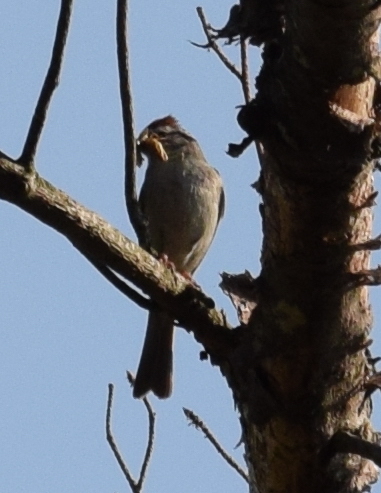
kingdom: Animalia
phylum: Chordata
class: Aves
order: Passeriformes
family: Passerellidae
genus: Spizella
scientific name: Spizella passerina
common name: Chipping sparrow
